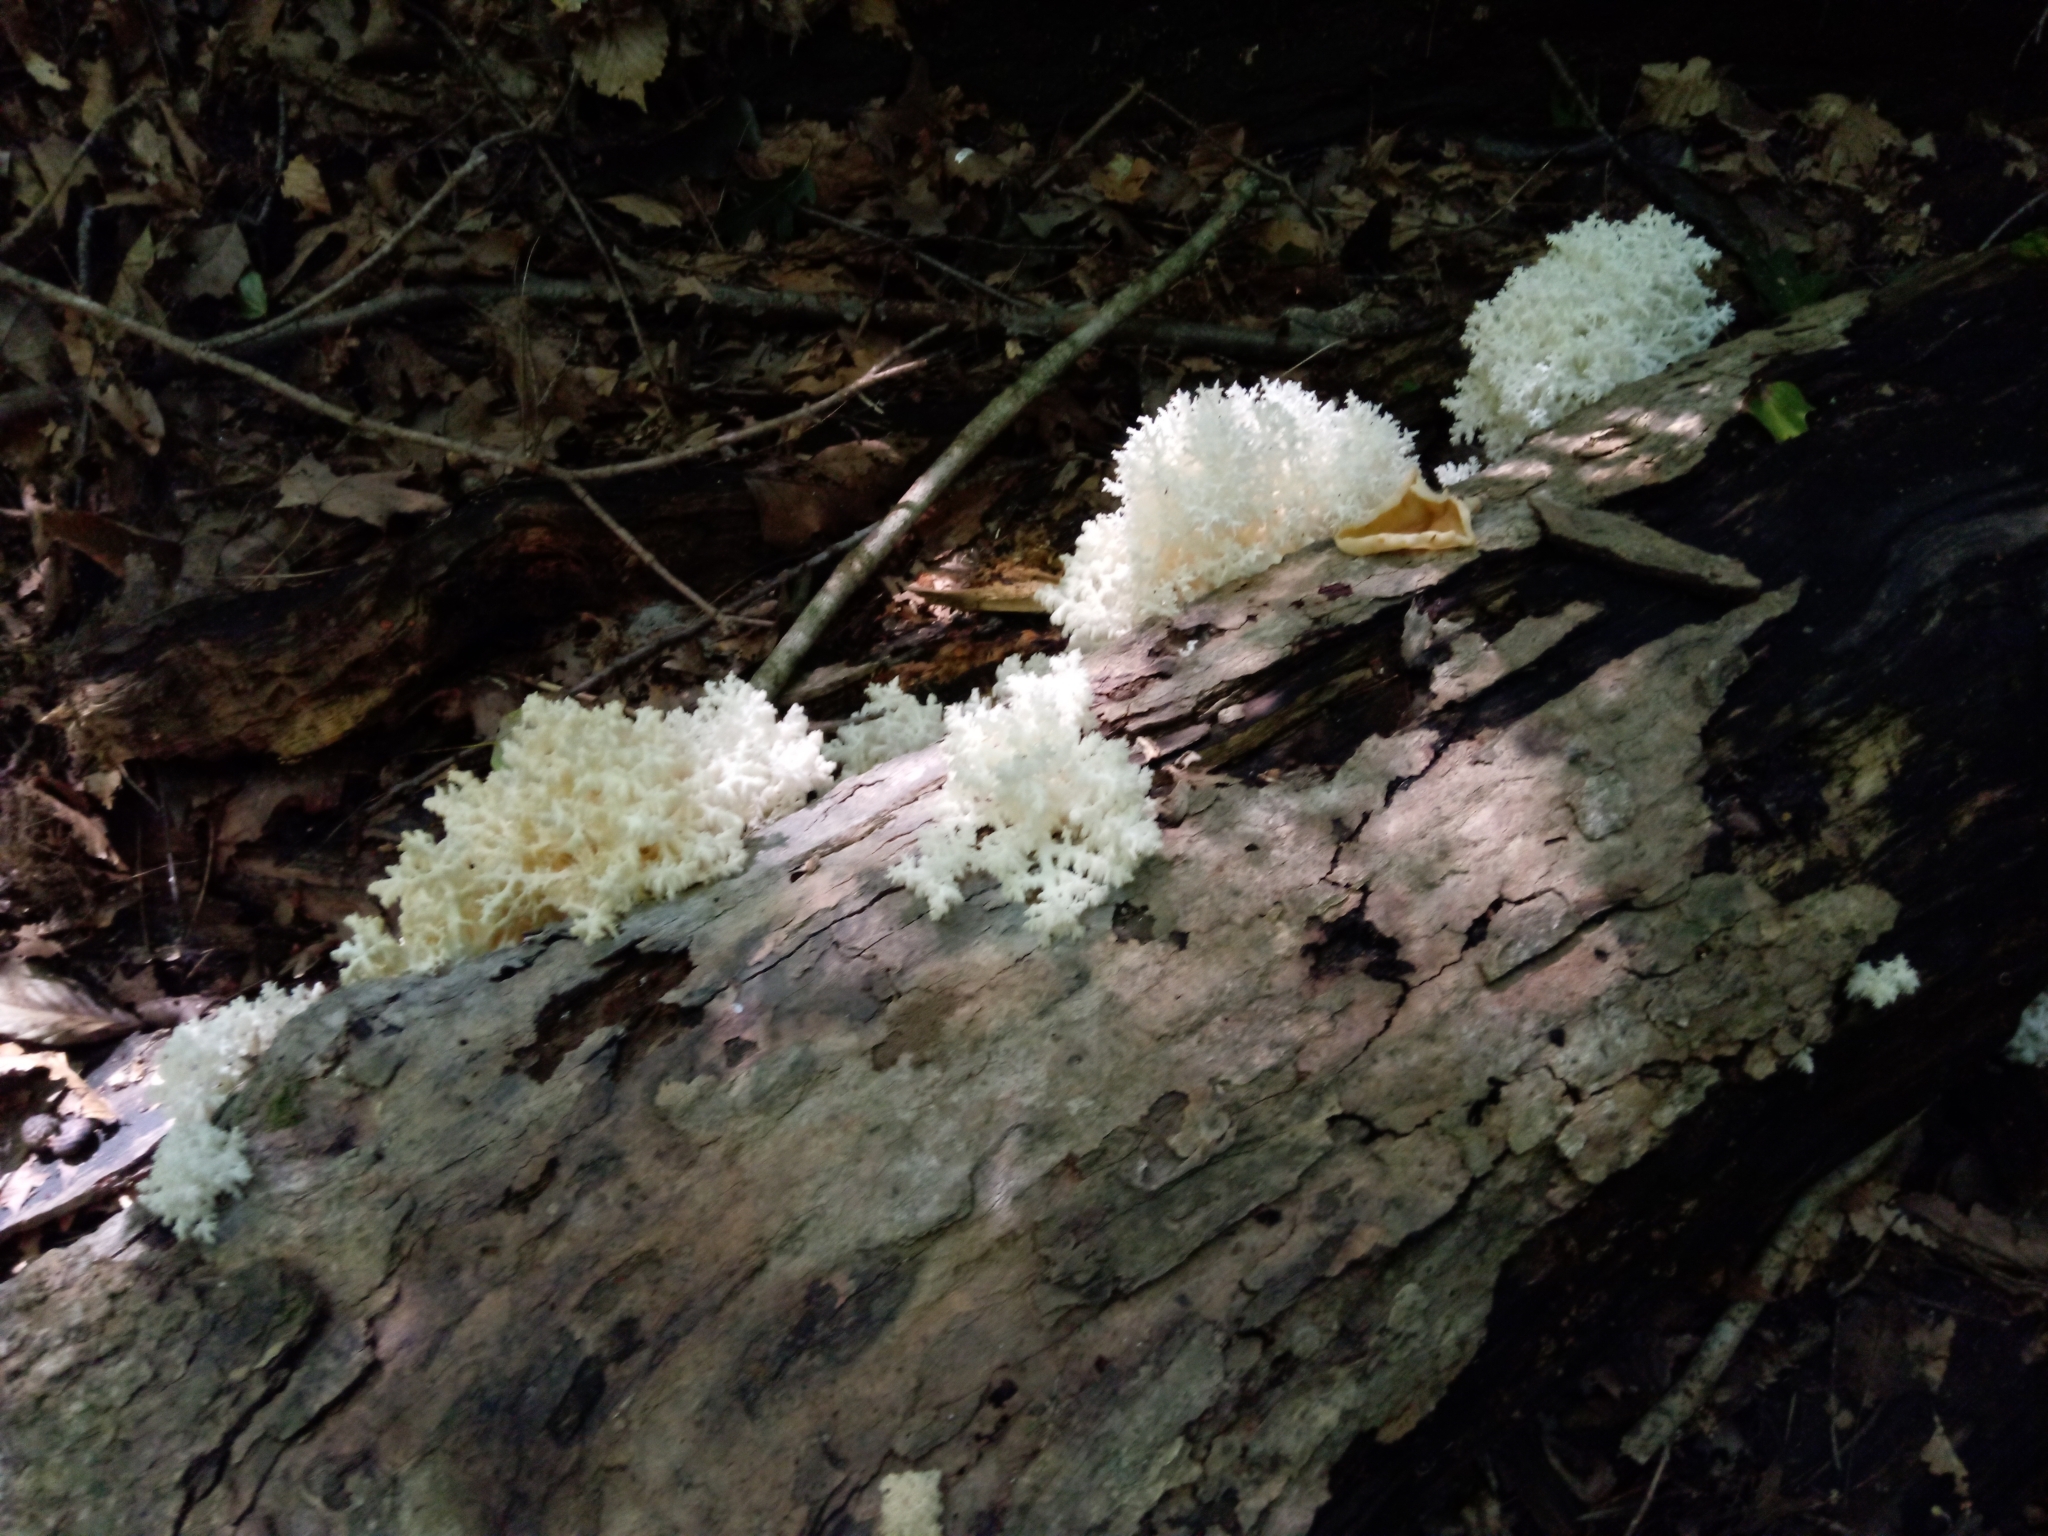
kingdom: Fungi
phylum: Basidiomycota
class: Agaricomycetes
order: Russulales
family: Hericiaceae
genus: Hericium
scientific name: Hericium coralloides
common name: Coral tooth
